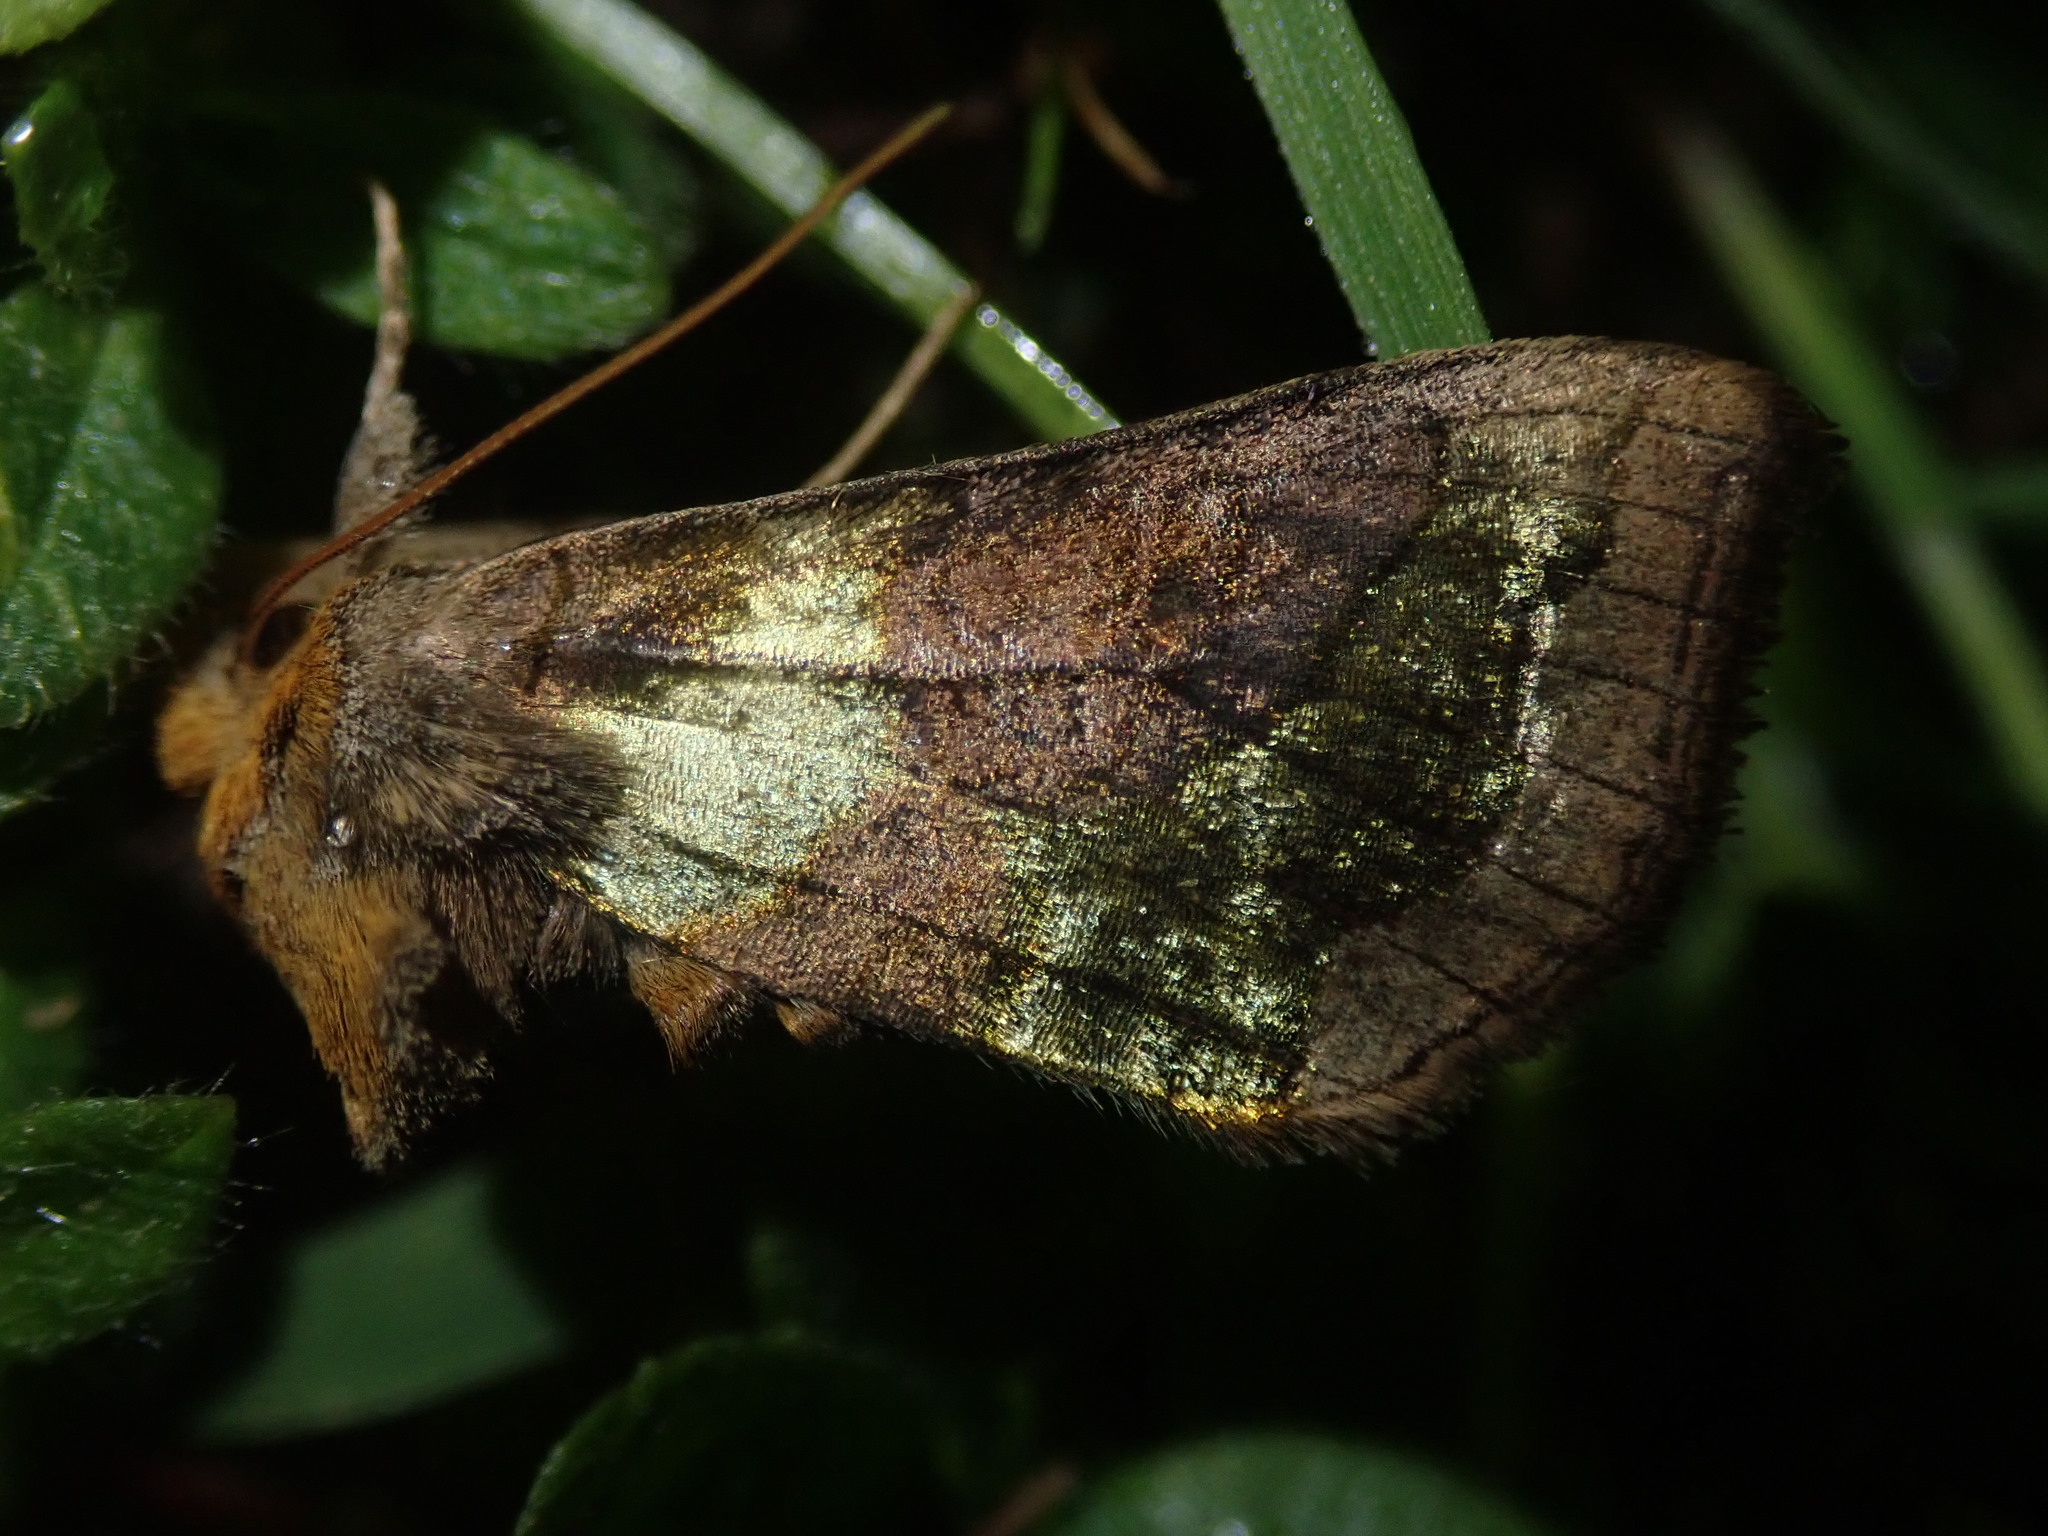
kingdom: Animalia
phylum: Arthropoda
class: Insecta
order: Lepidoptera
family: Noctuidae
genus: Diachrysia
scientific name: Diachrysia stenochrysis
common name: Cryptic burnished brass
